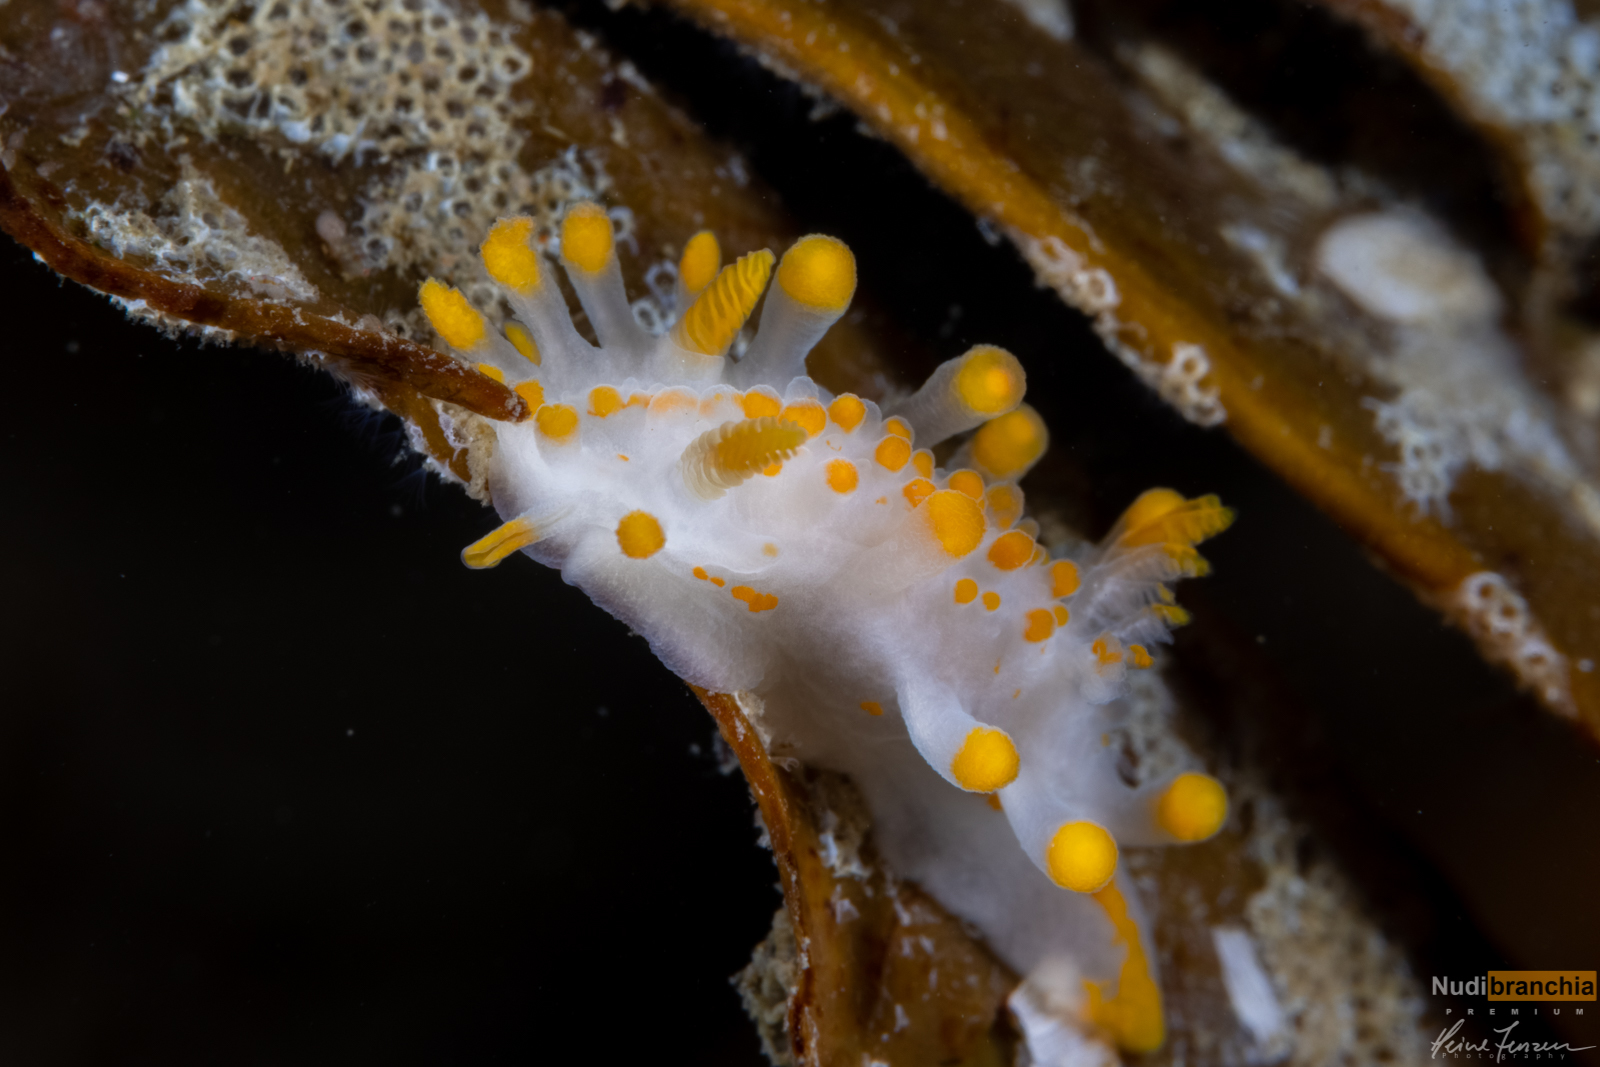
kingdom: Animalia
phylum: Mollusca
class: Gastropoda
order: Nudibranchia
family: Polyceridae
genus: Limacia
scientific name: Limacia clavigera
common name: Orange-clubbed sea slug
